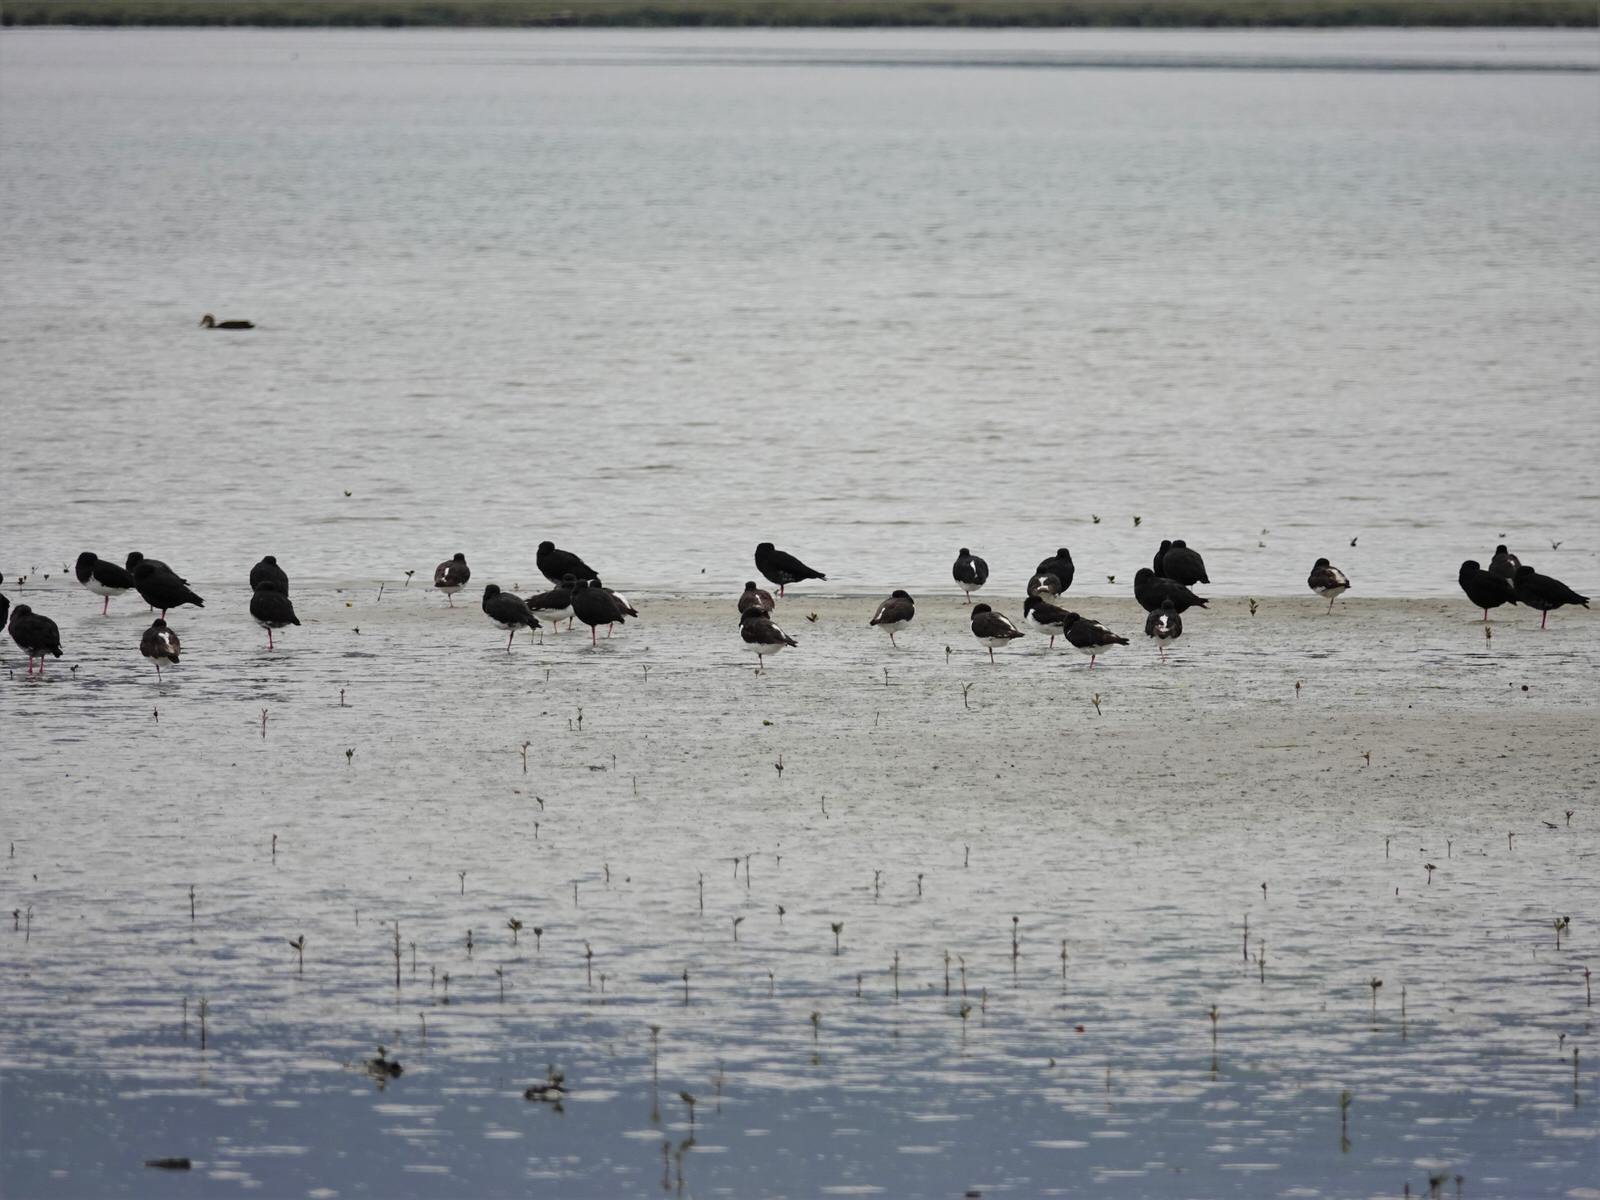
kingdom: Animalia
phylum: Chordata
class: Aves
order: Charadriiformes
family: Haematopodidae
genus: Haematopus
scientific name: Haematopus finschi
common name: South island oystercatcher
